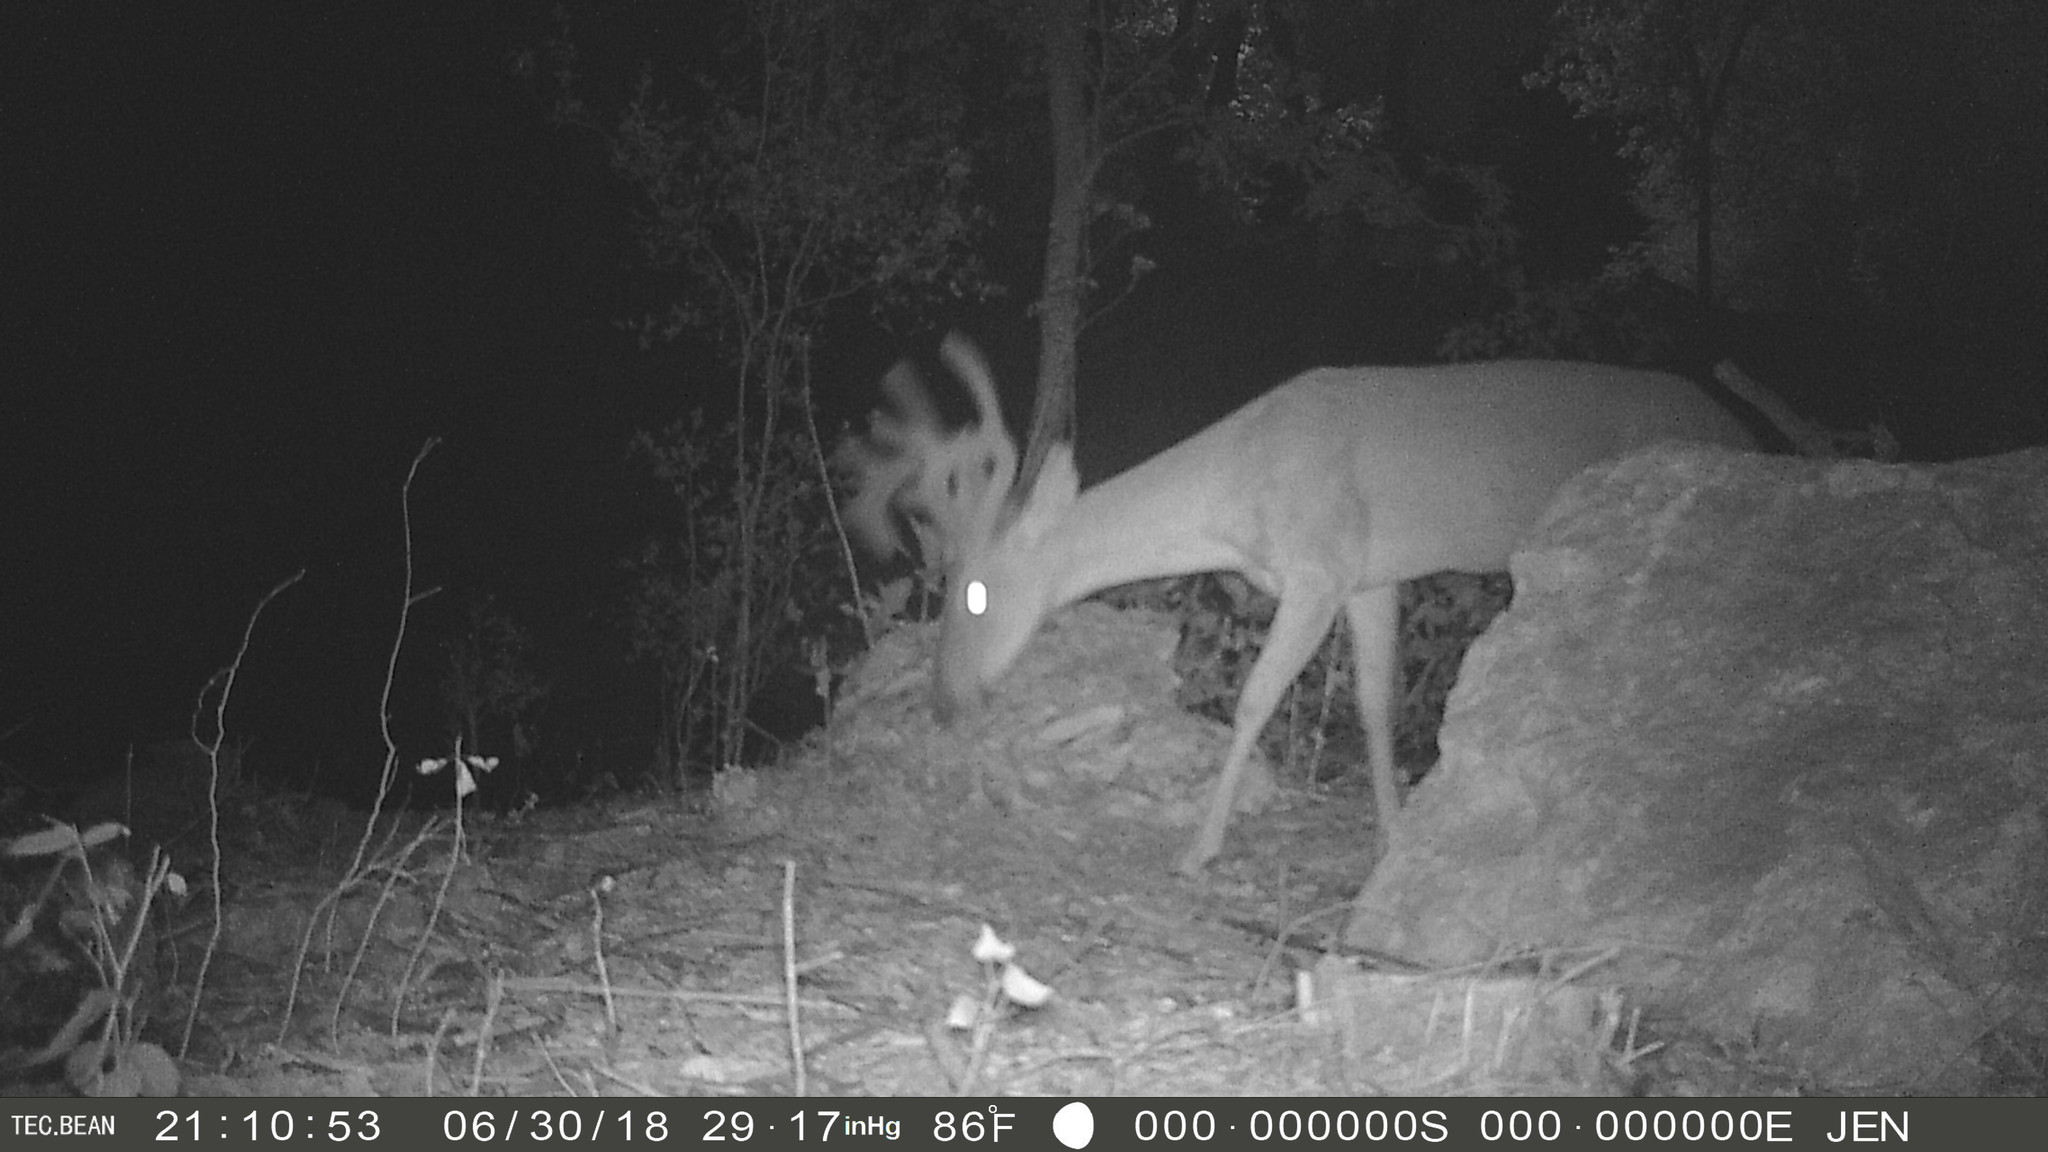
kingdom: Animalia
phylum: Chordata
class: Mammalia
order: Artiodactyla
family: Cervidae
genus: Odocoileus
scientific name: Odocoileus virginianus
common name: White-tailed deer
